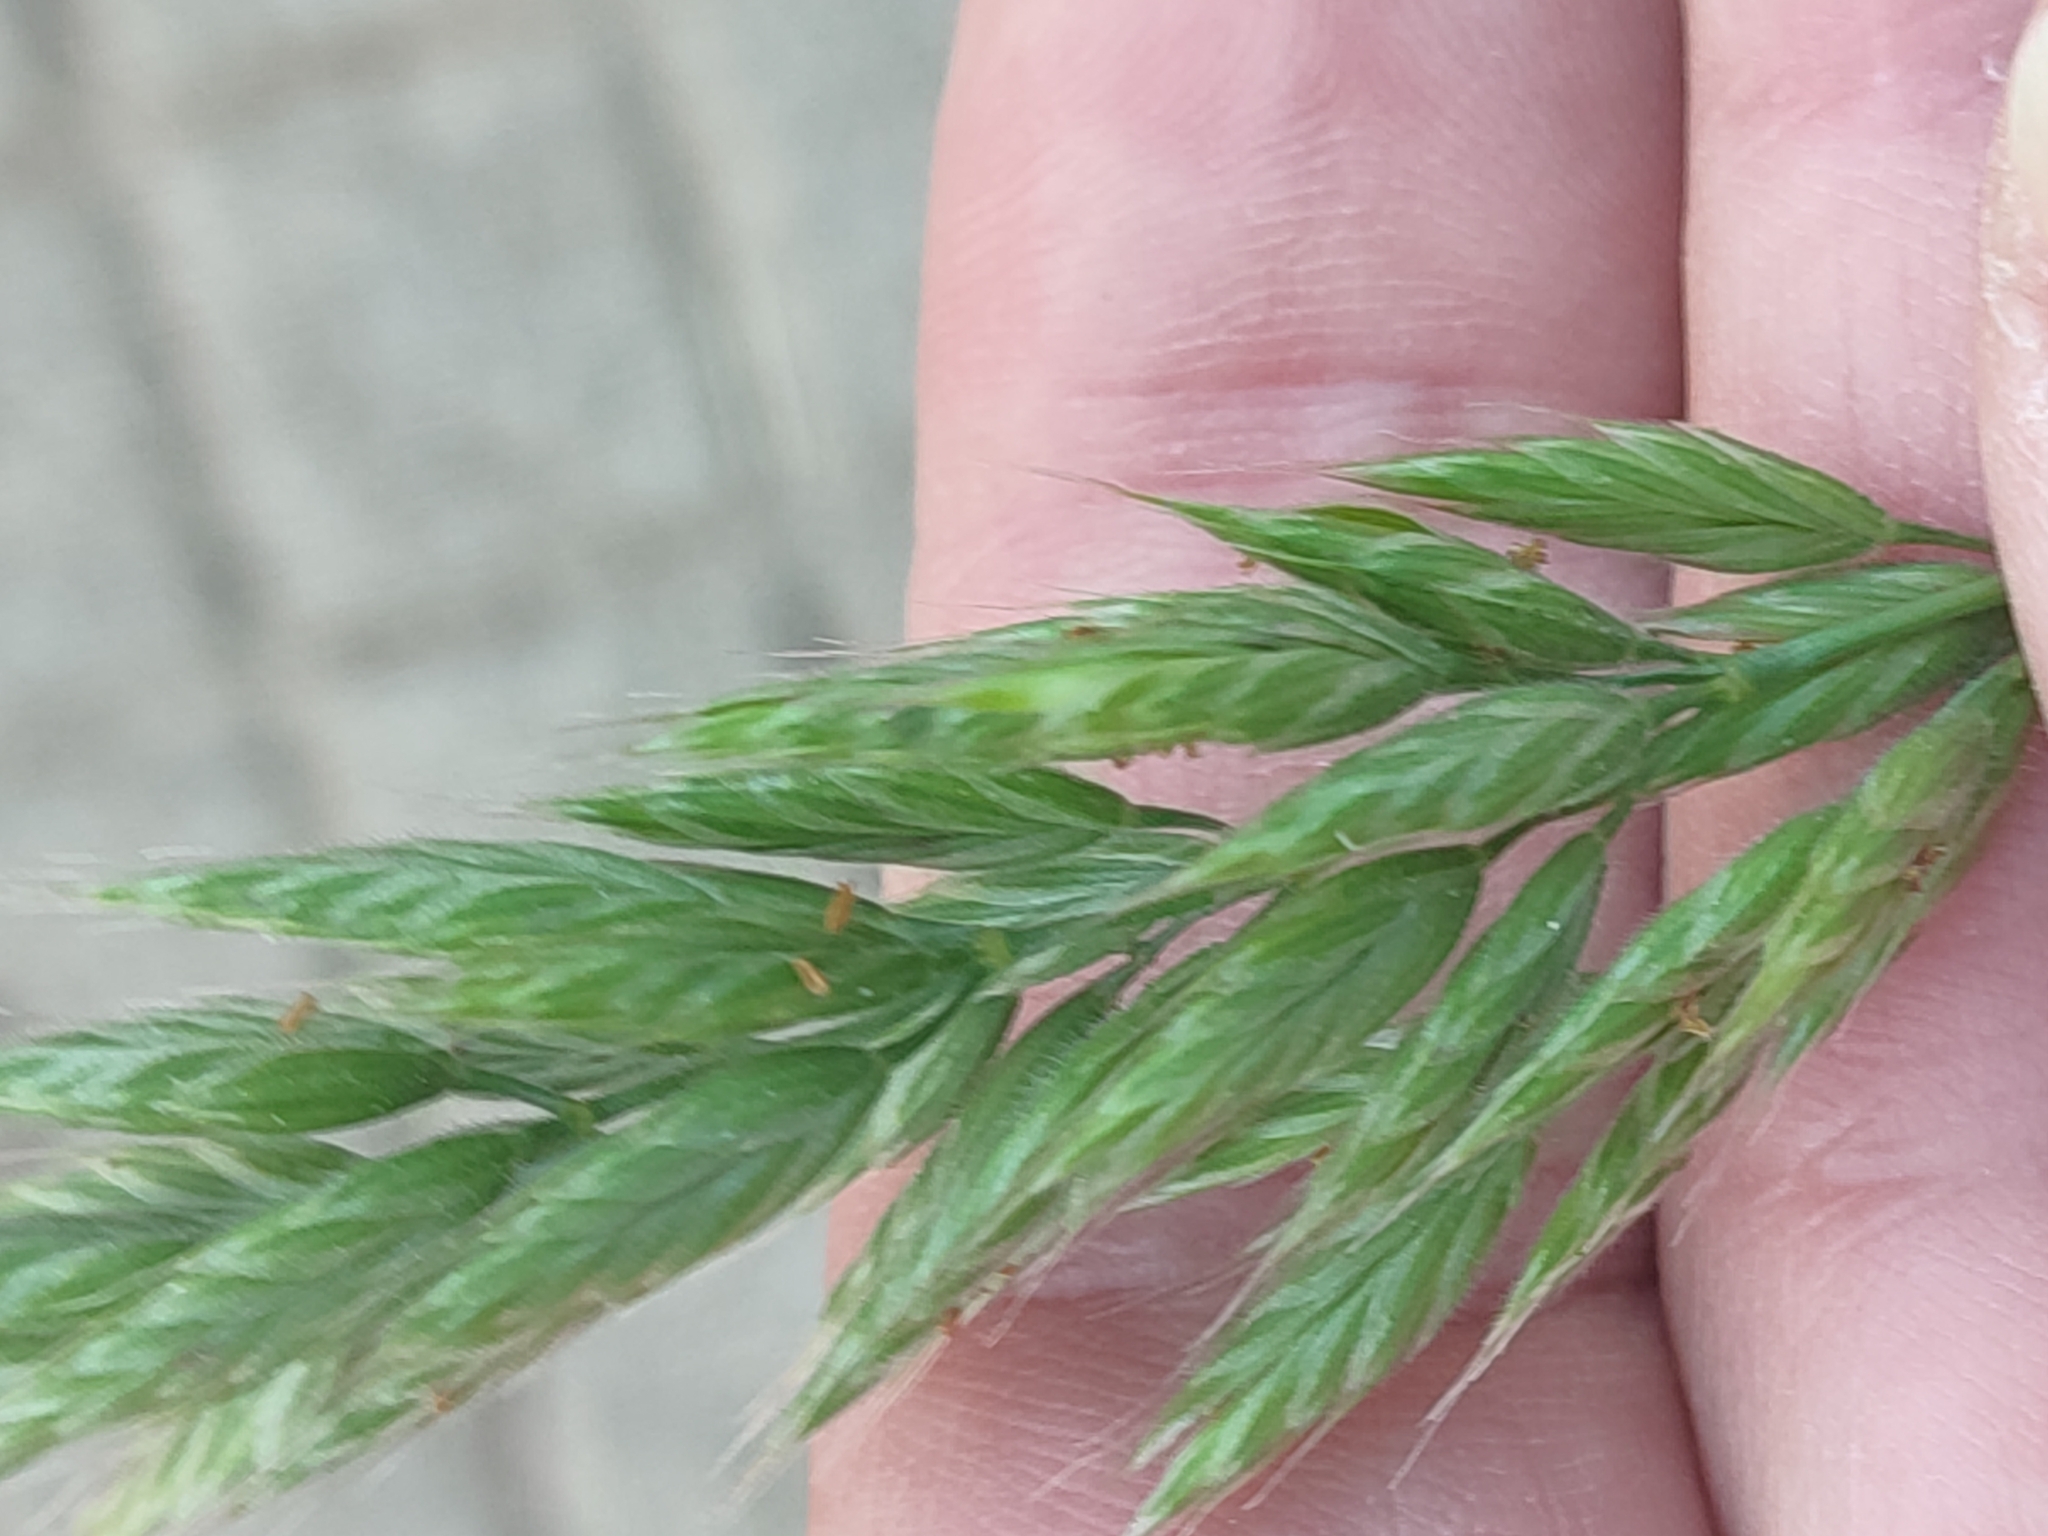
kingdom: Plantae
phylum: Tracheophyta
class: Liliopsida
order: Poales
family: Poaceae
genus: Bromus
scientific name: Bromus hordeaceus
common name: Soft brome
